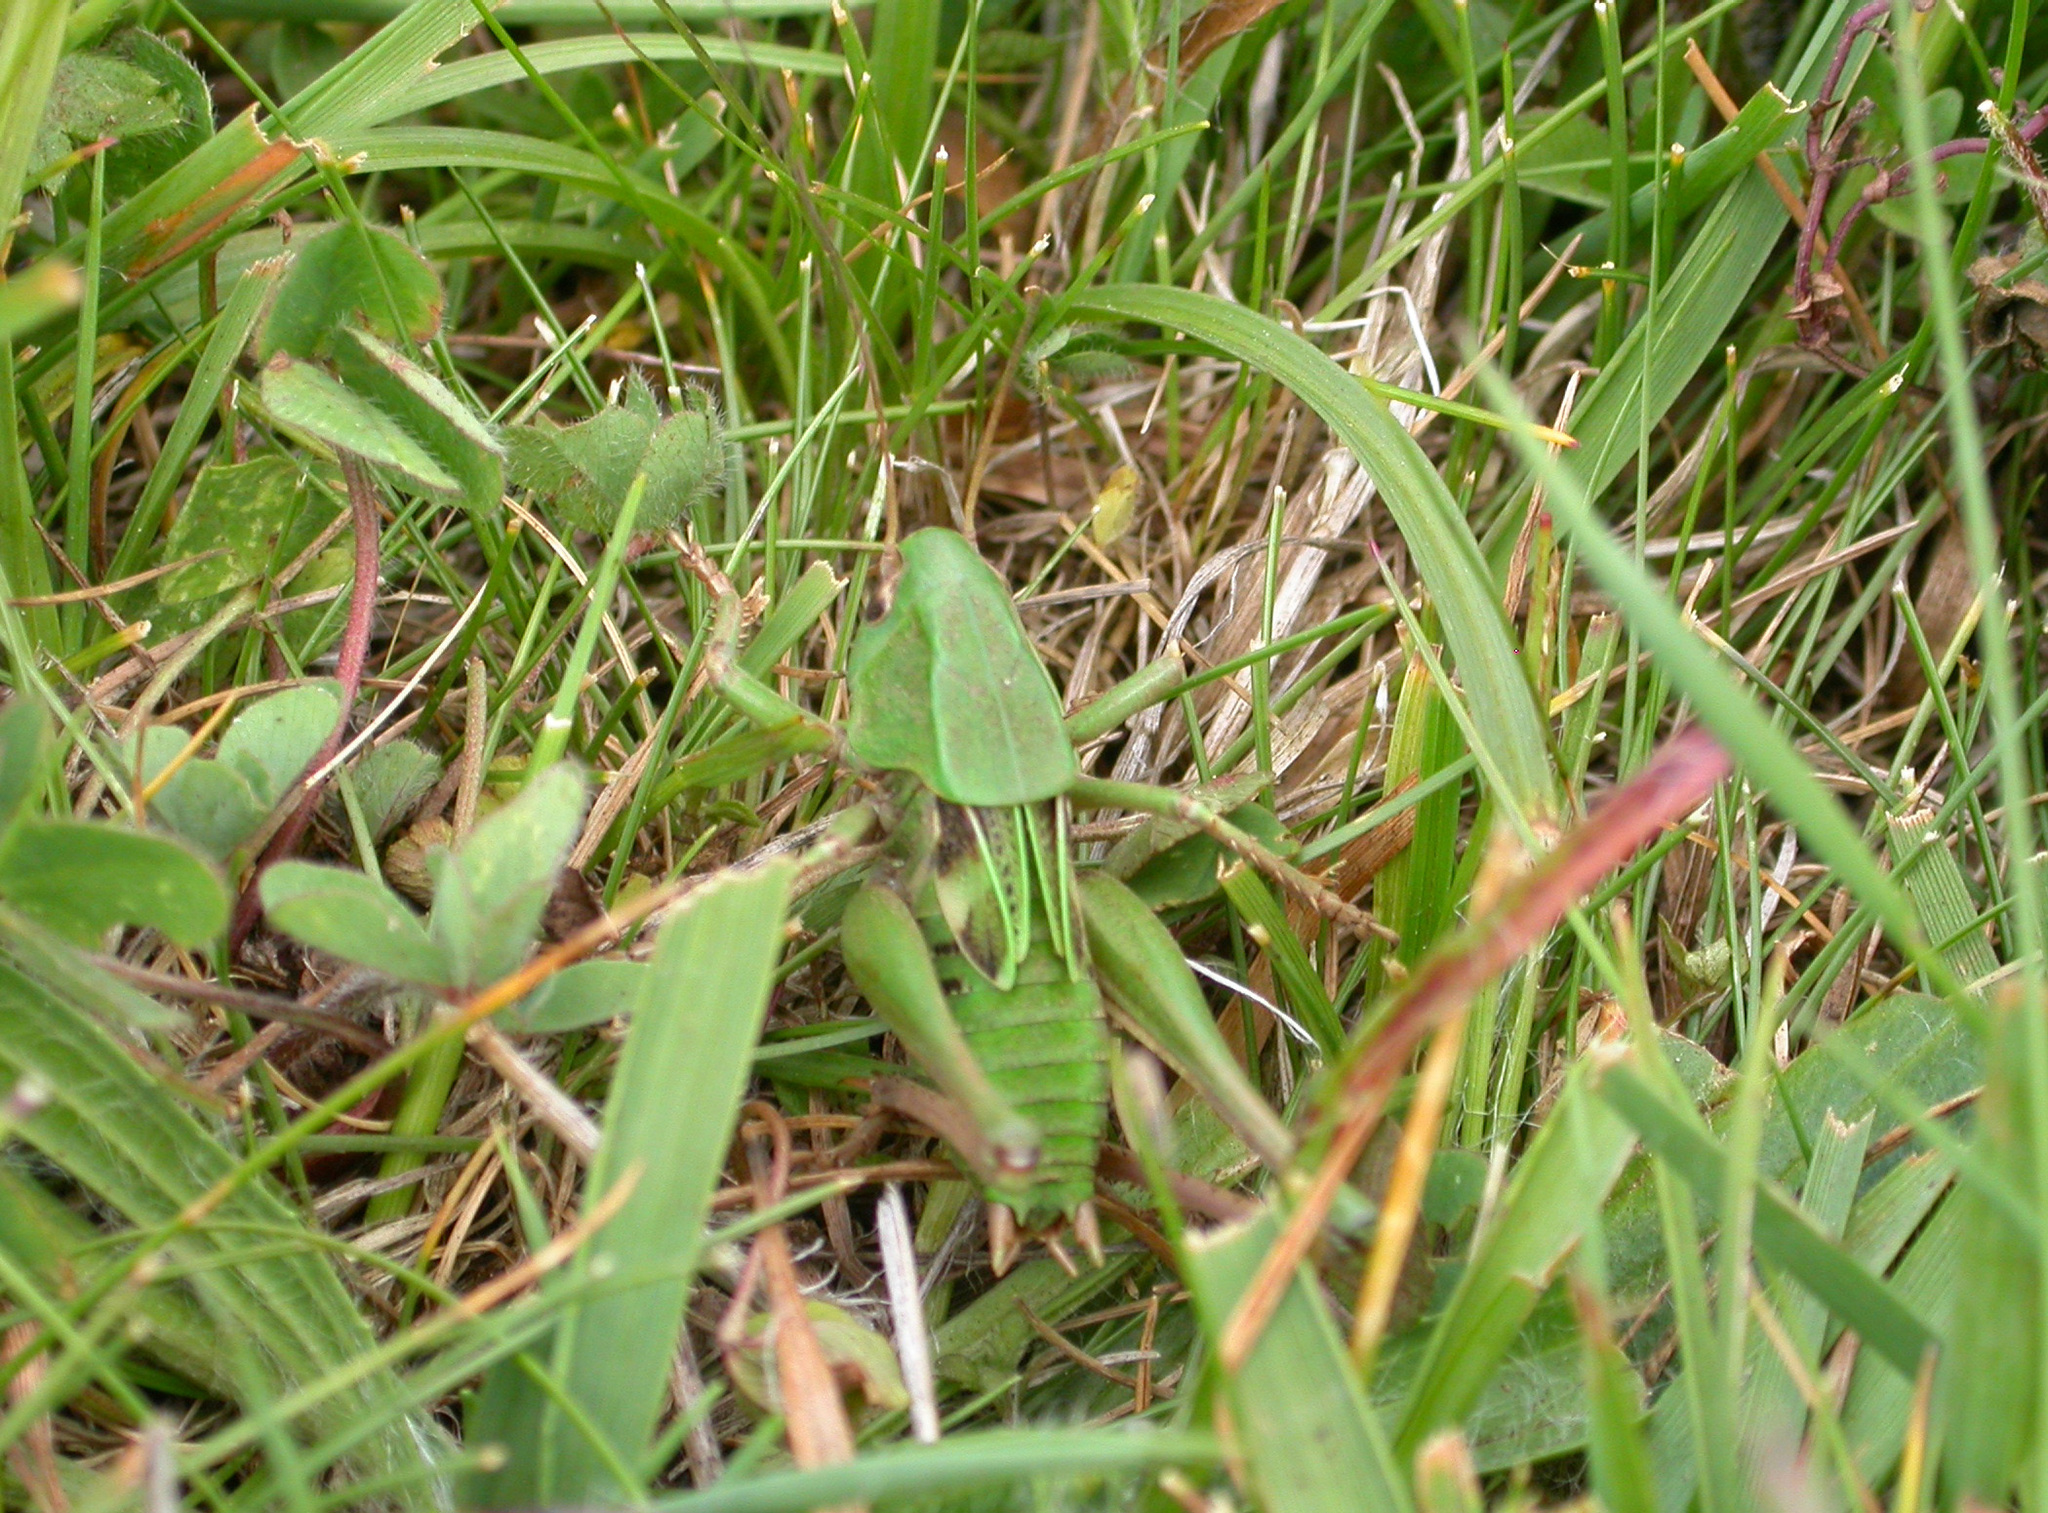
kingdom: Animalia
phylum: Arthropoda
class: Insecta
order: Orthoptera
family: Tettigoniidae
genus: Decticus
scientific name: Decticus verrucivorus
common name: Wart-biter
